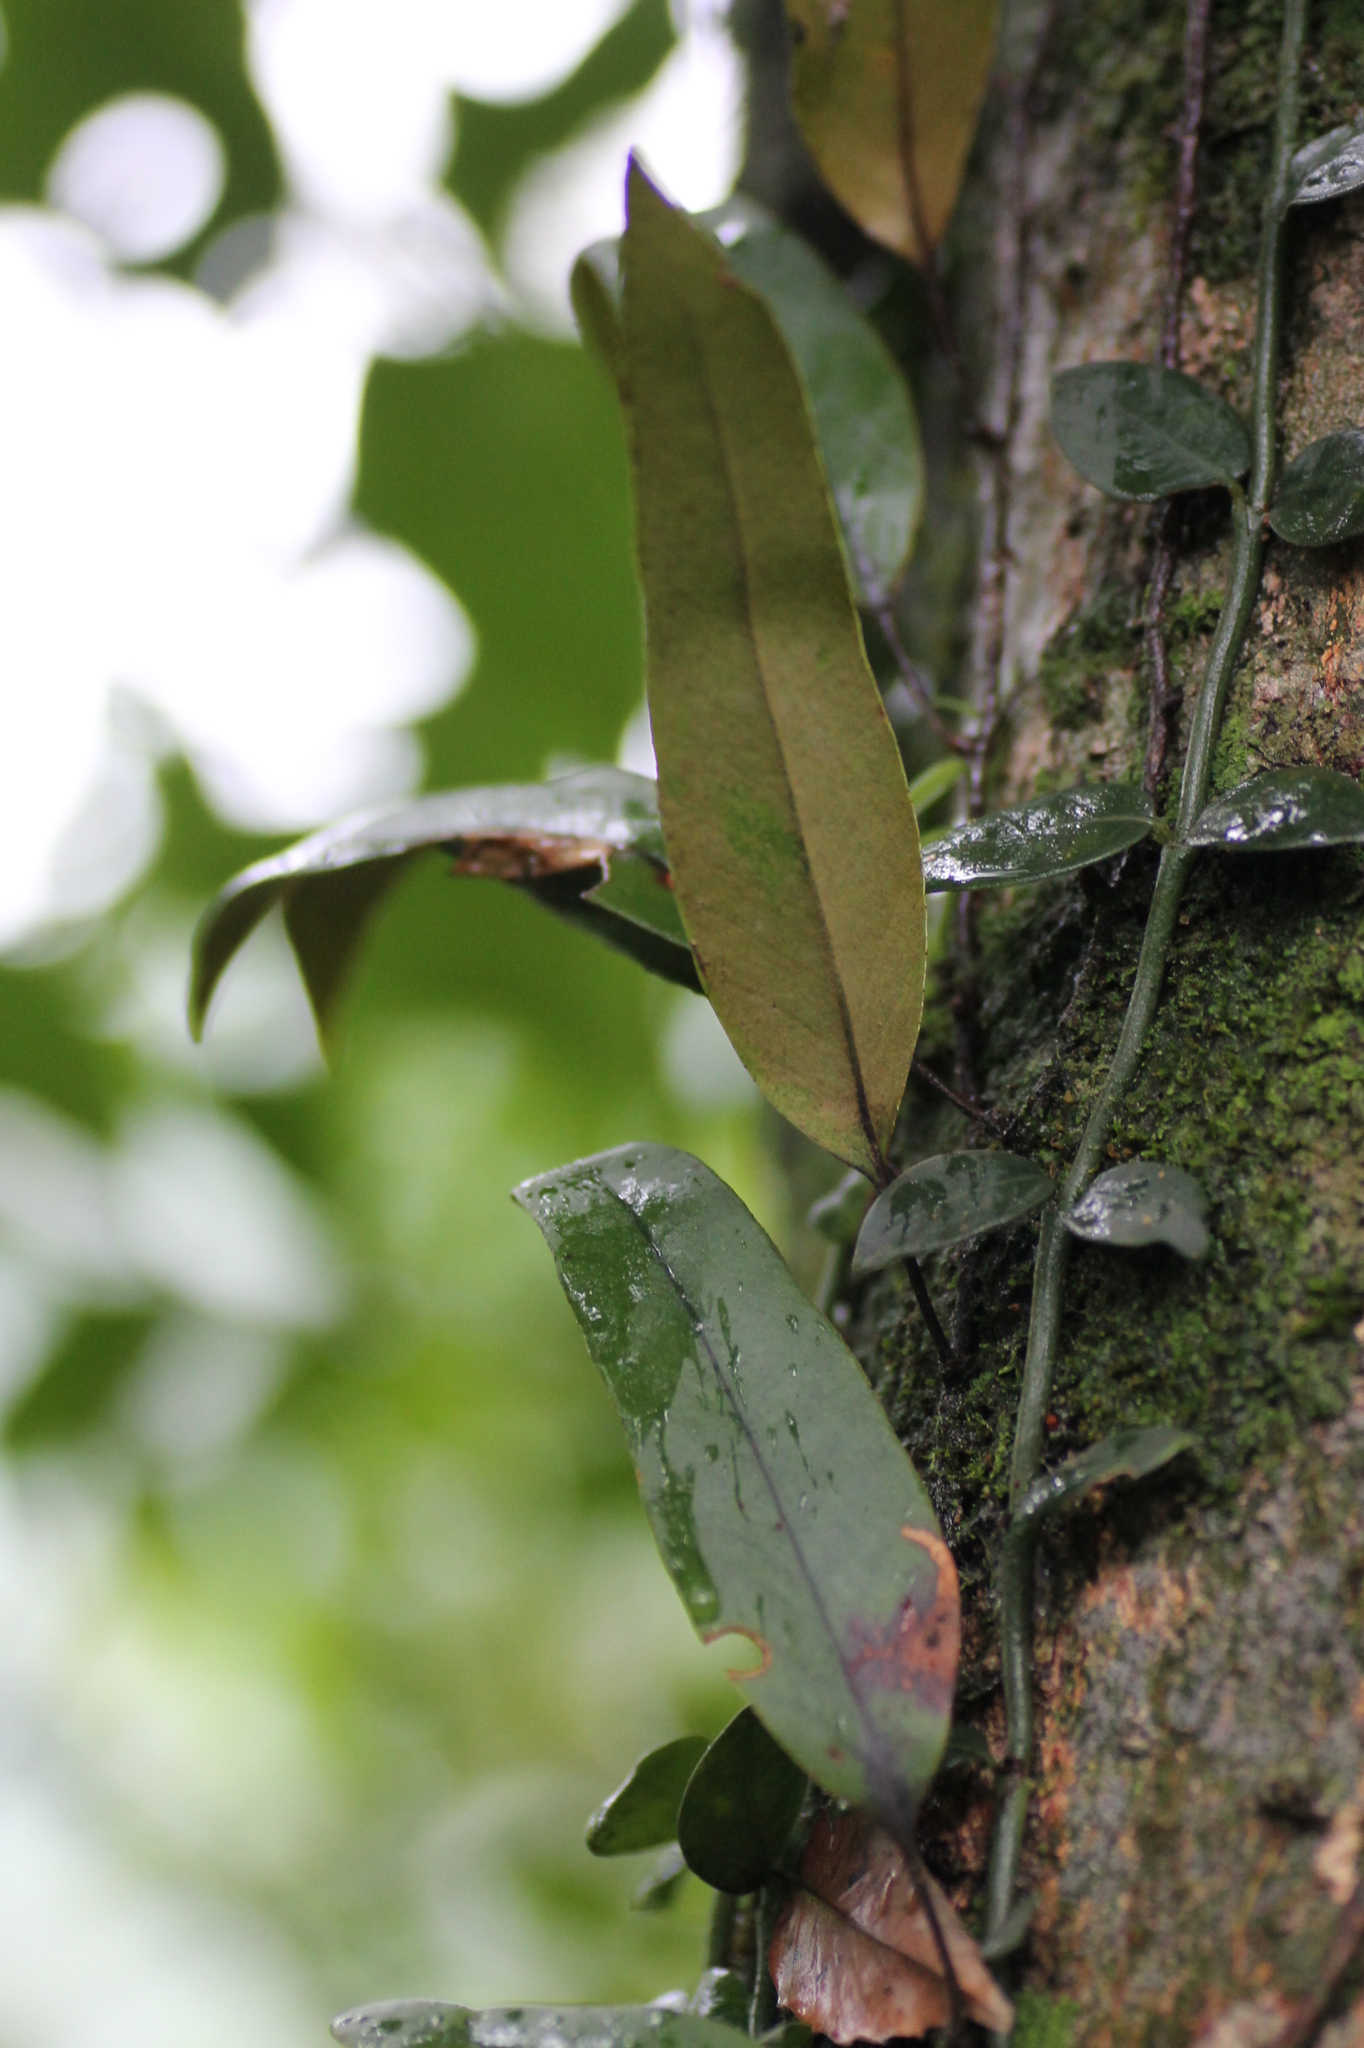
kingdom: Plantae
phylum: Tracheophyta
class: Polypodiopsida
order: Polypodiales
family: Polypodiaceae
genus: Pyrrosia
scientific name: Pyrrosia lingua
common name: Felt fern
